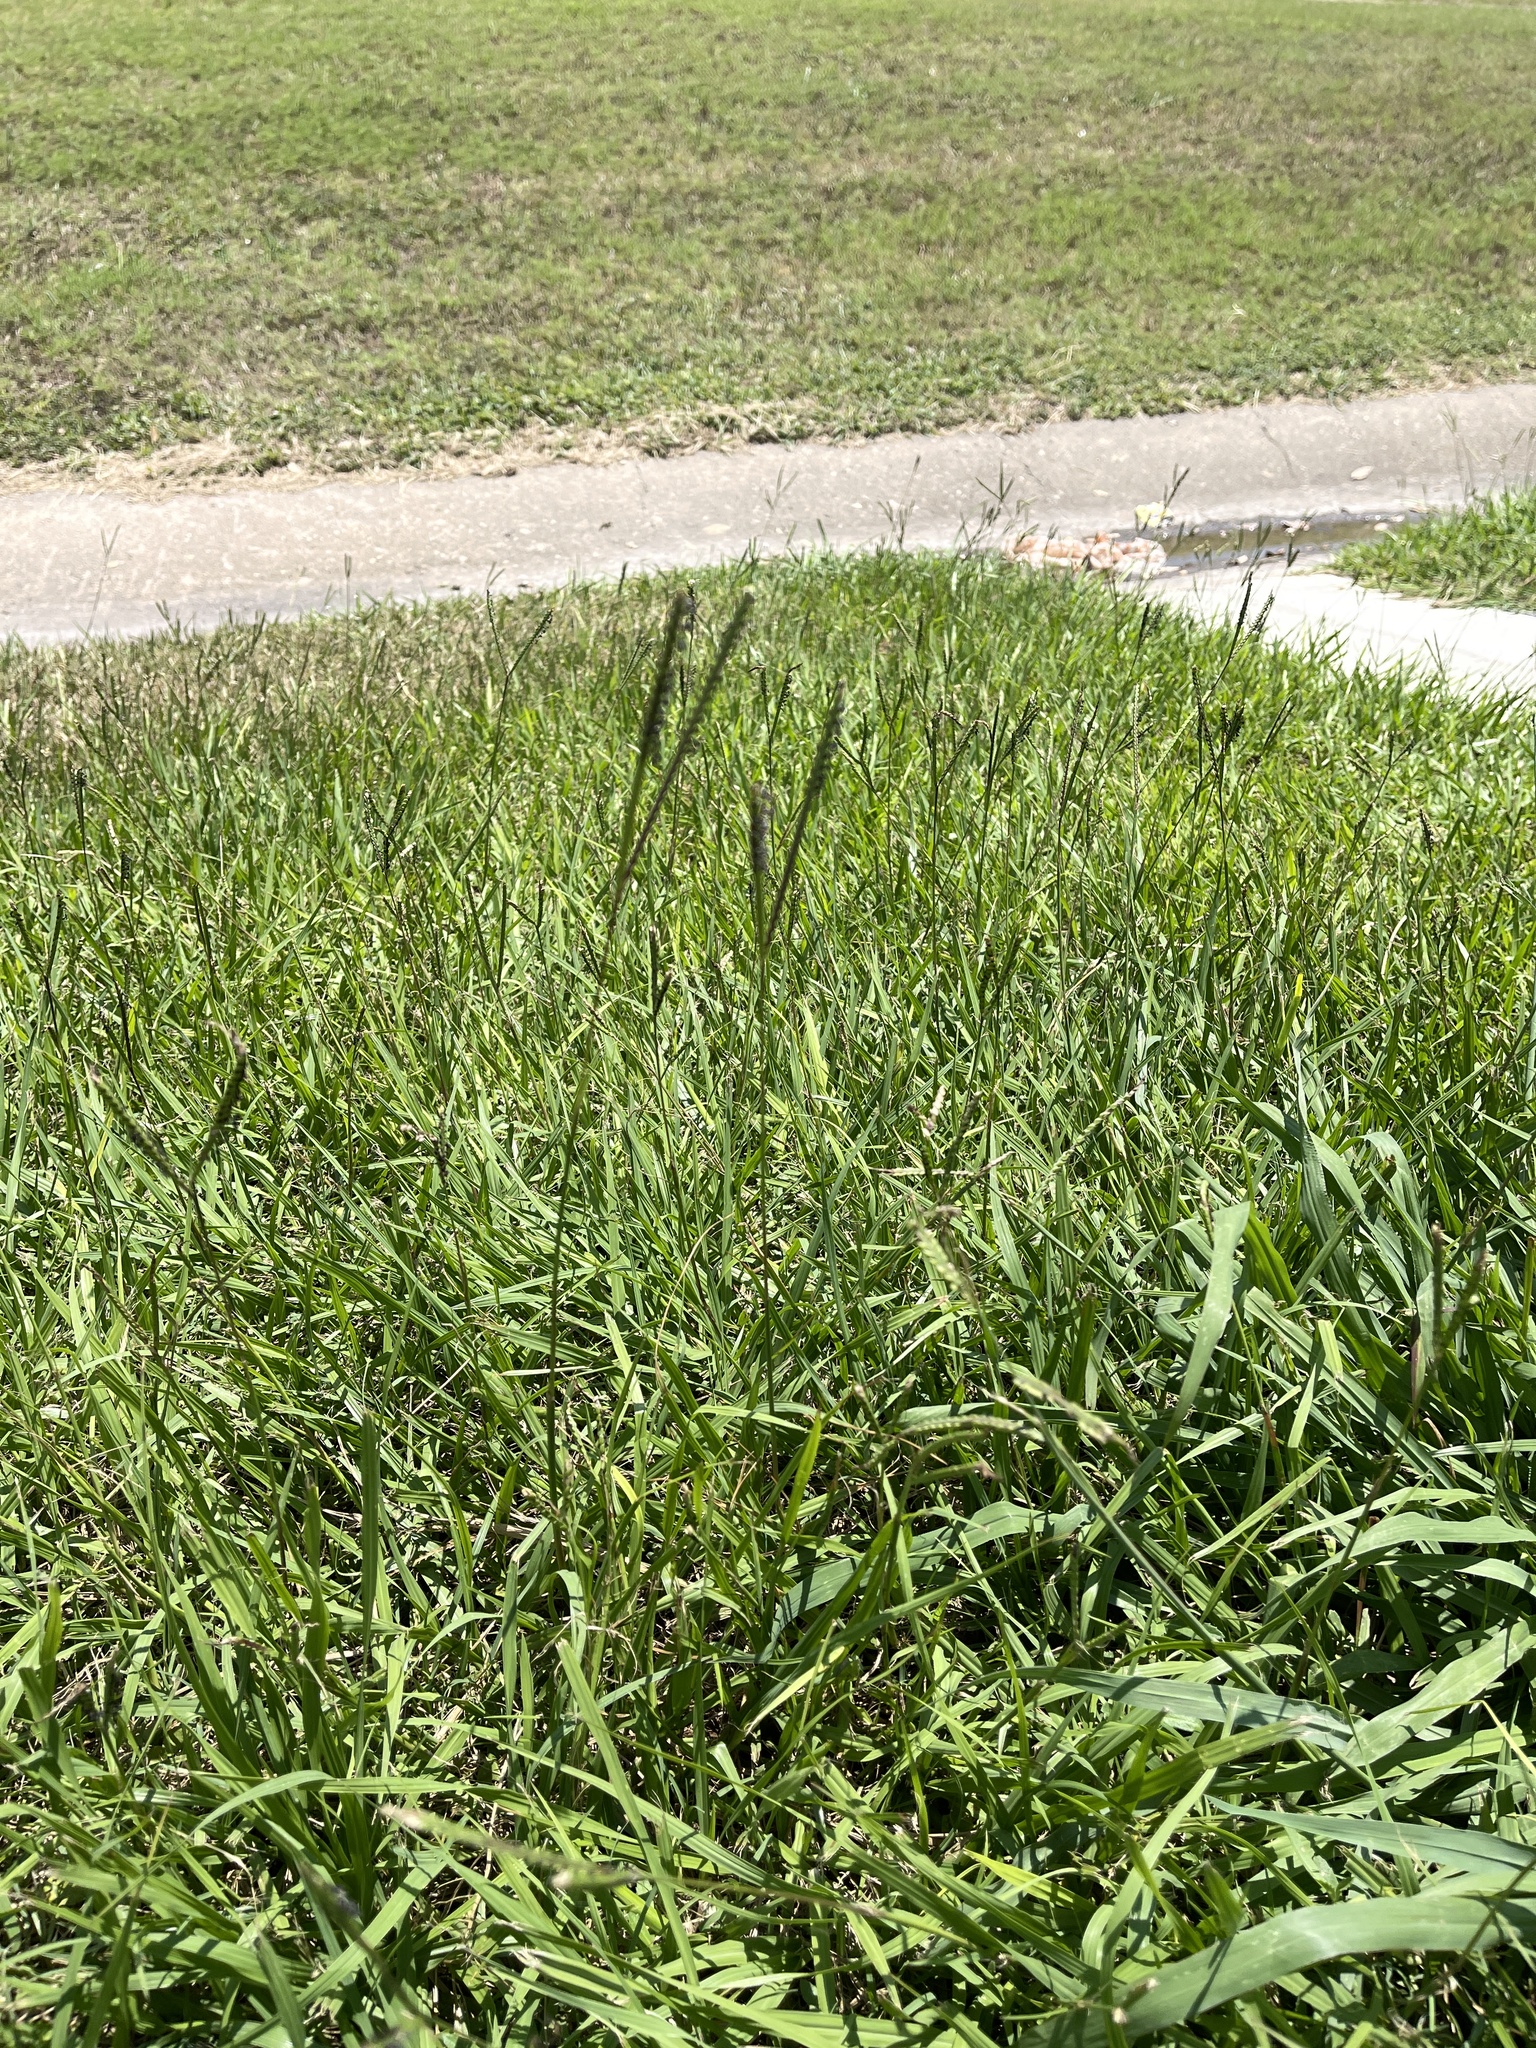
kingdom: Plantae
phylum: Tracheophyta
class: Liliopsida
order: Poales
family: Poaceae
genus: Paspalum
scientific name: Paspalum notatum
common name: Bahiagrass
